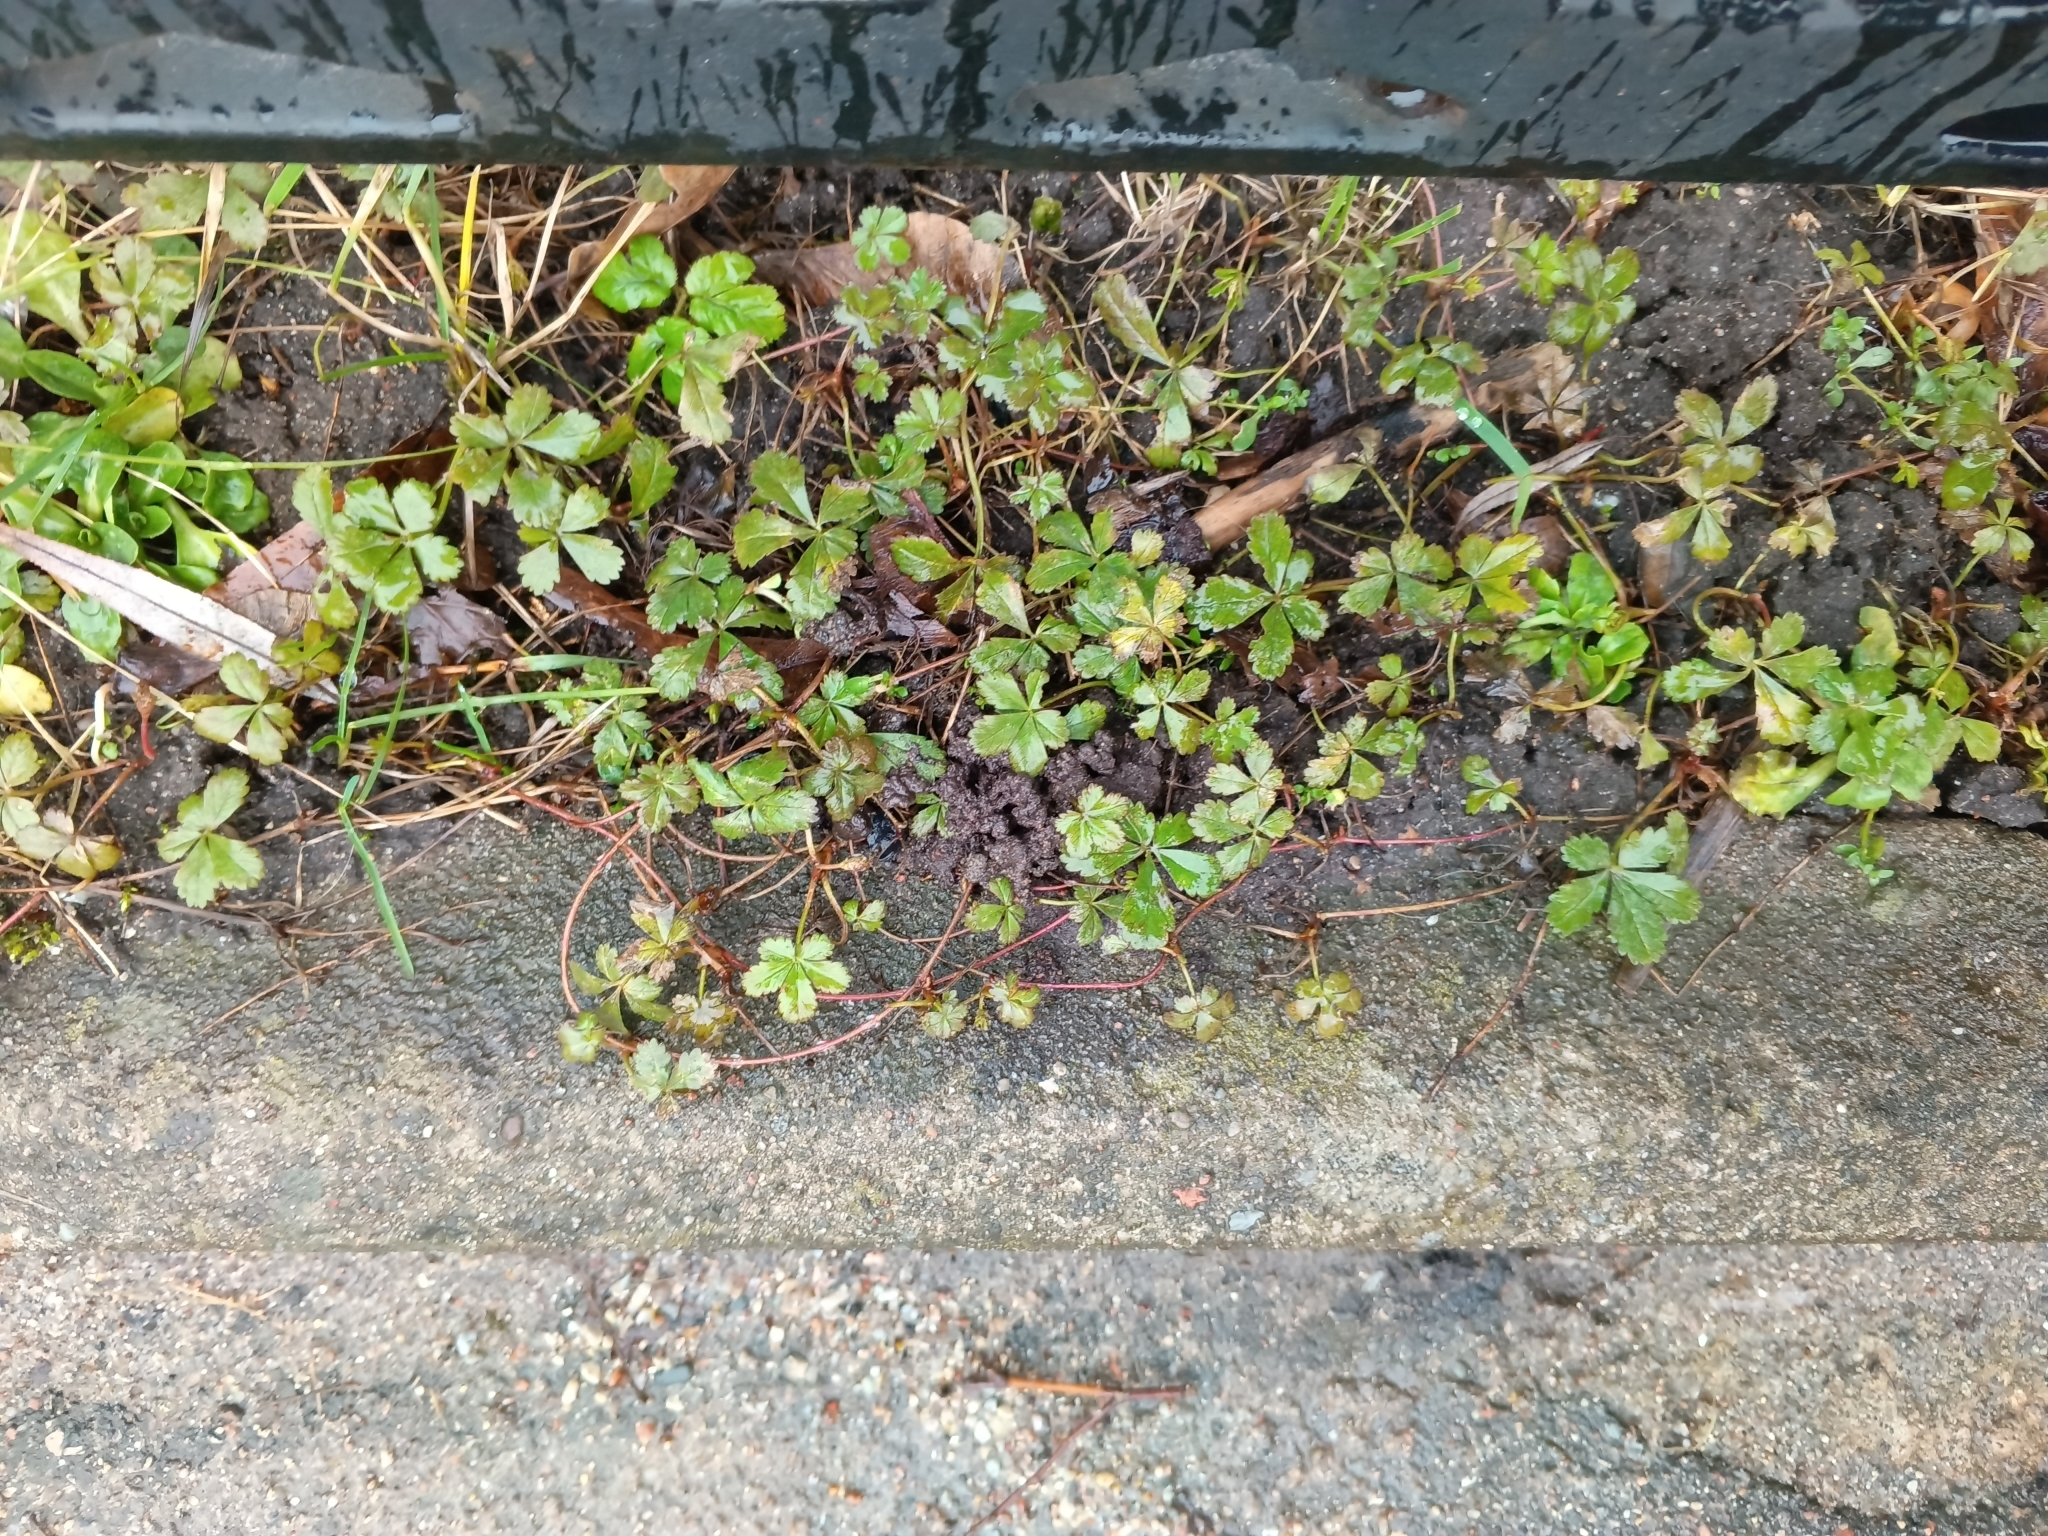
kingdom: Plantae
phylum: Tracheophyta
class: Magnoliopsida
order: Rosales
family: Rosaceae
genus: Potentilla
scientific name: Potentilla reptans
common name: Creeping cinquefoil
